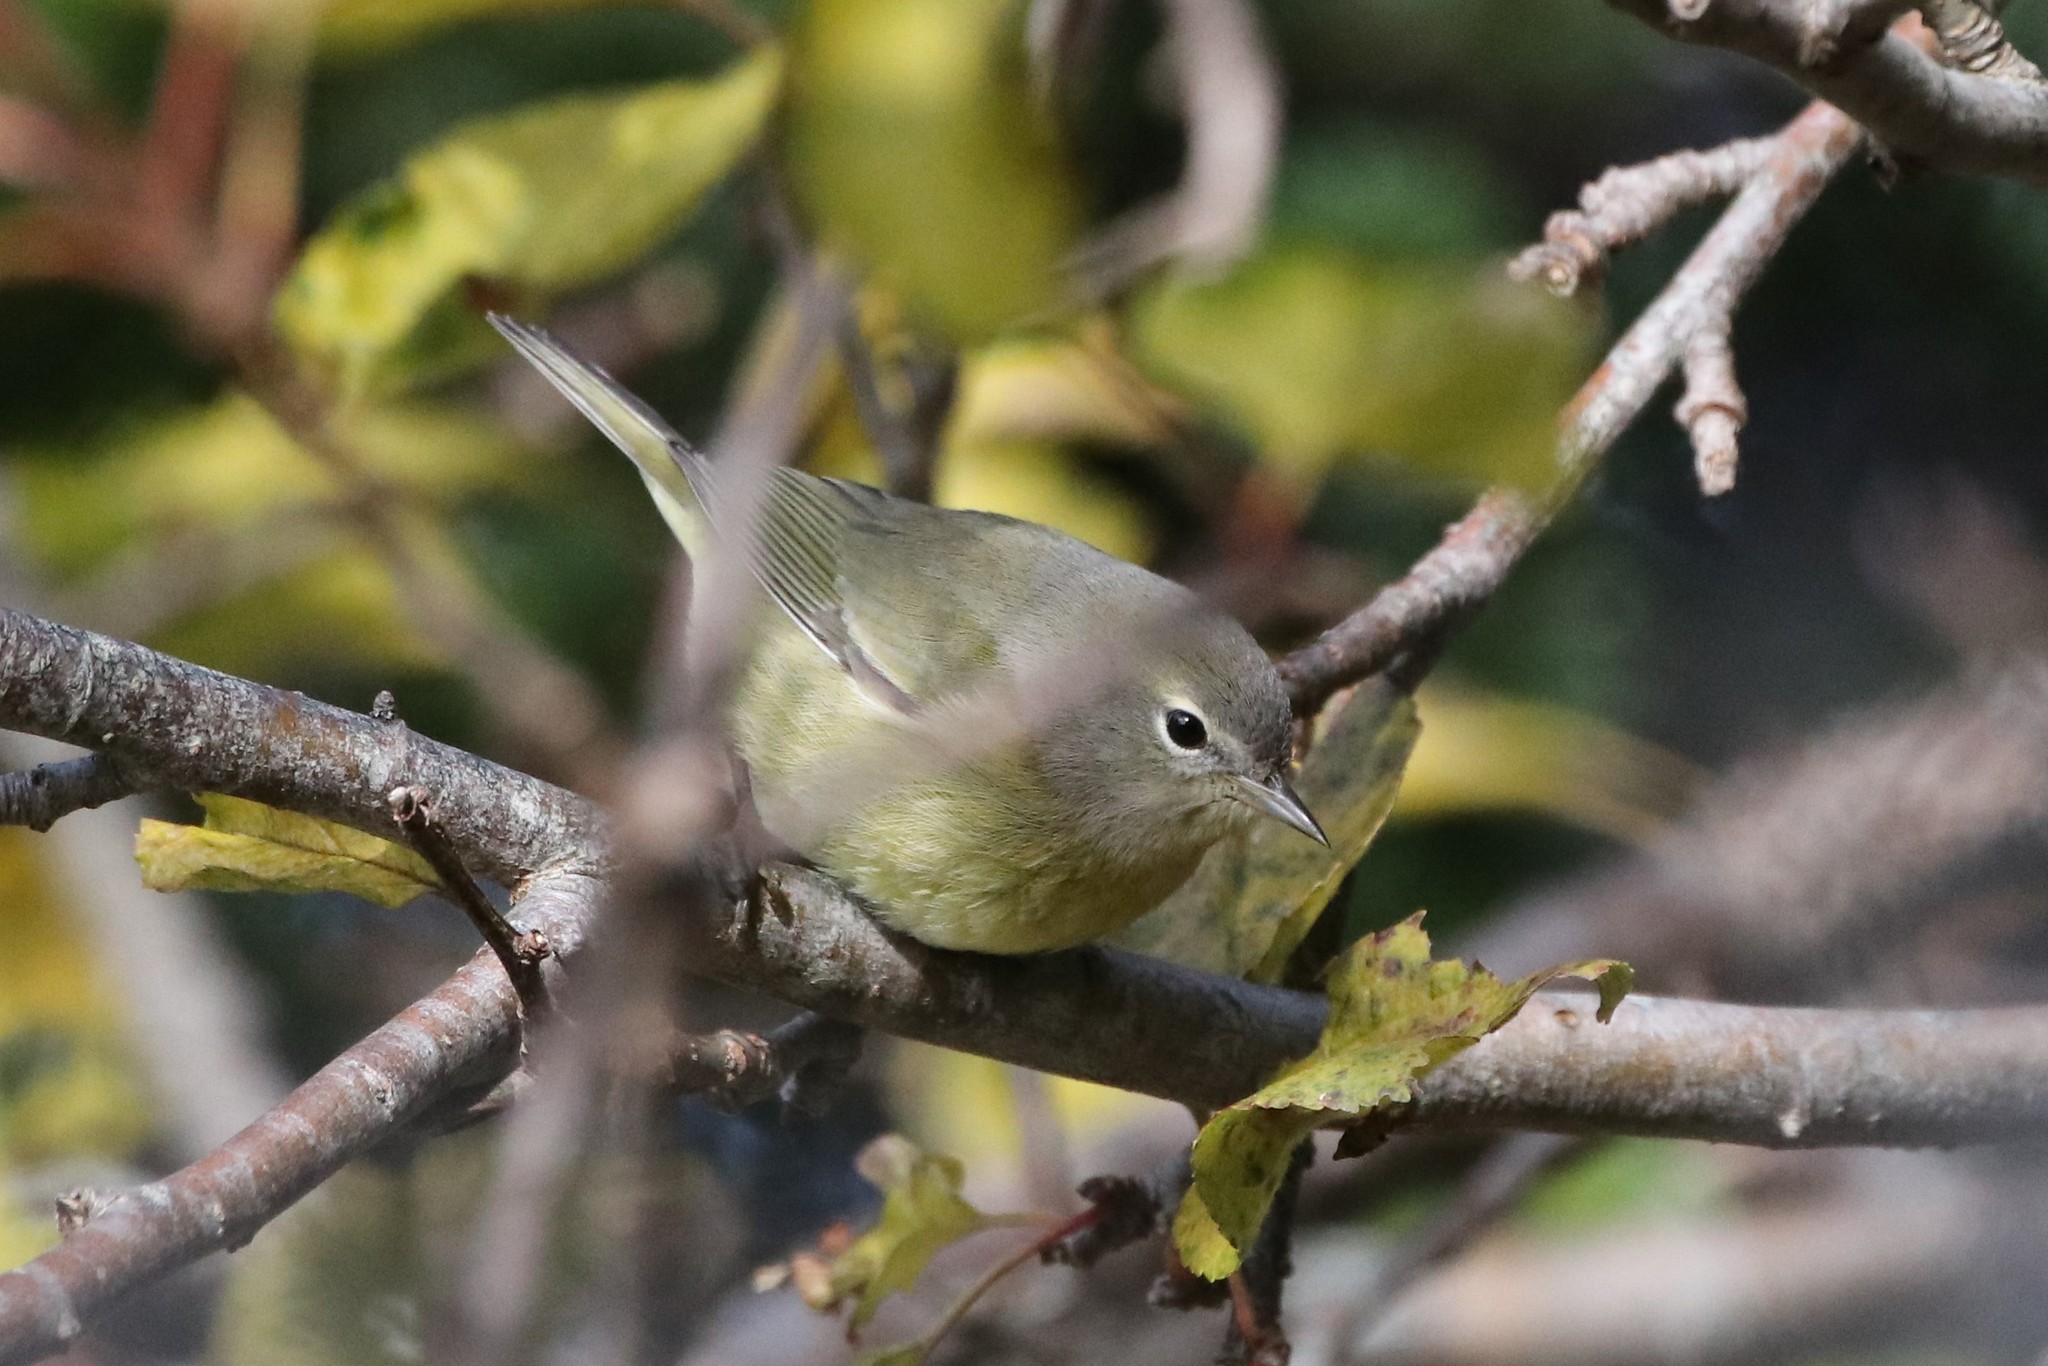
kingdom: Animalia
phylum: Chordata
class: Aves
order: Passeriformes
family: Parulidae
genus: Leiothlypis
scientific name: Leiothlypis celata
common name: Orange-crowned warbler
